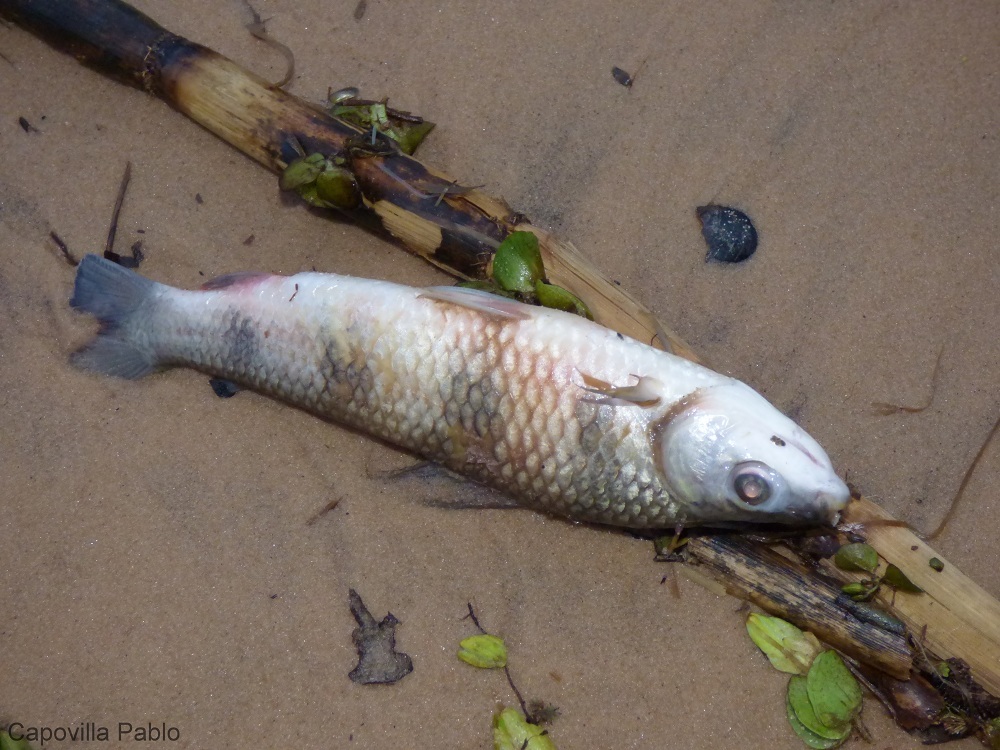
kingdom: Animalia
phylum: Chordata
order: Characiformes
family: Anostomidae
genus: Schizodon
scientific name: Schizodon borellii
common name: Characin
